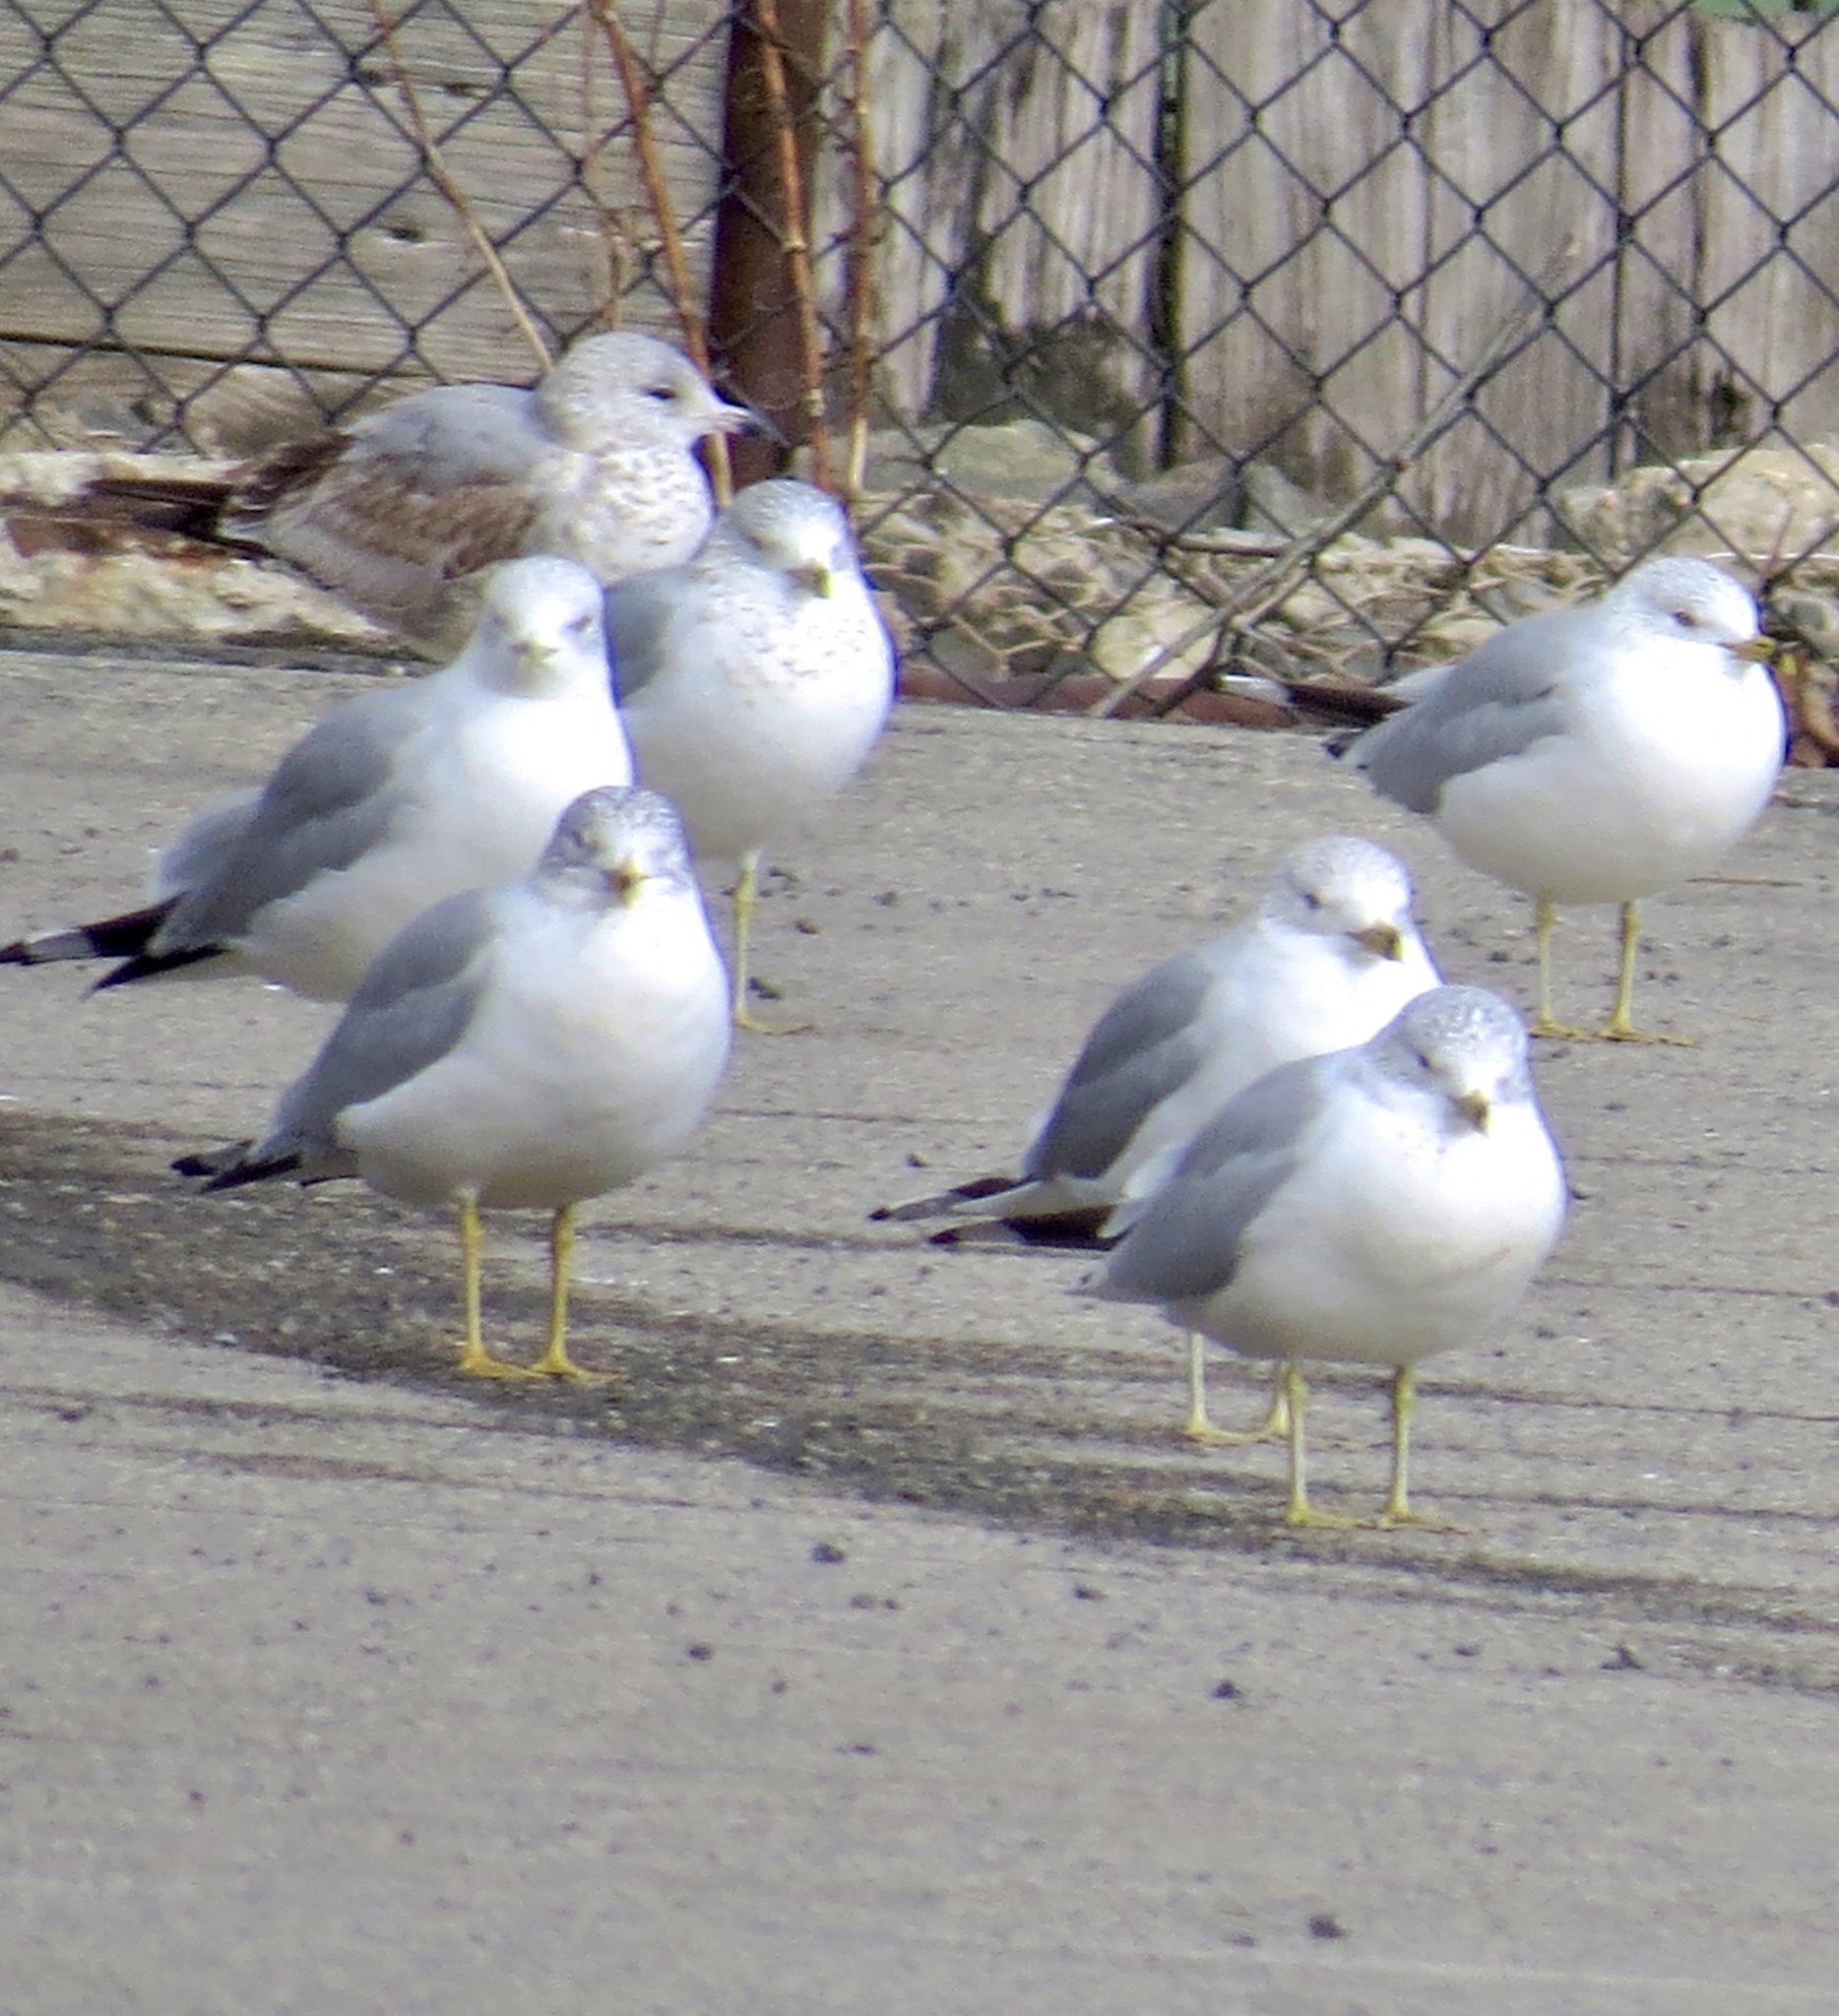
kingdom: Animalia
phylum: Chordata
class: Aves
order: Charadriiformes
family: Laridae
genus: Larus
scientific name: Larus delawarensis
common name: Ring-billed gull
